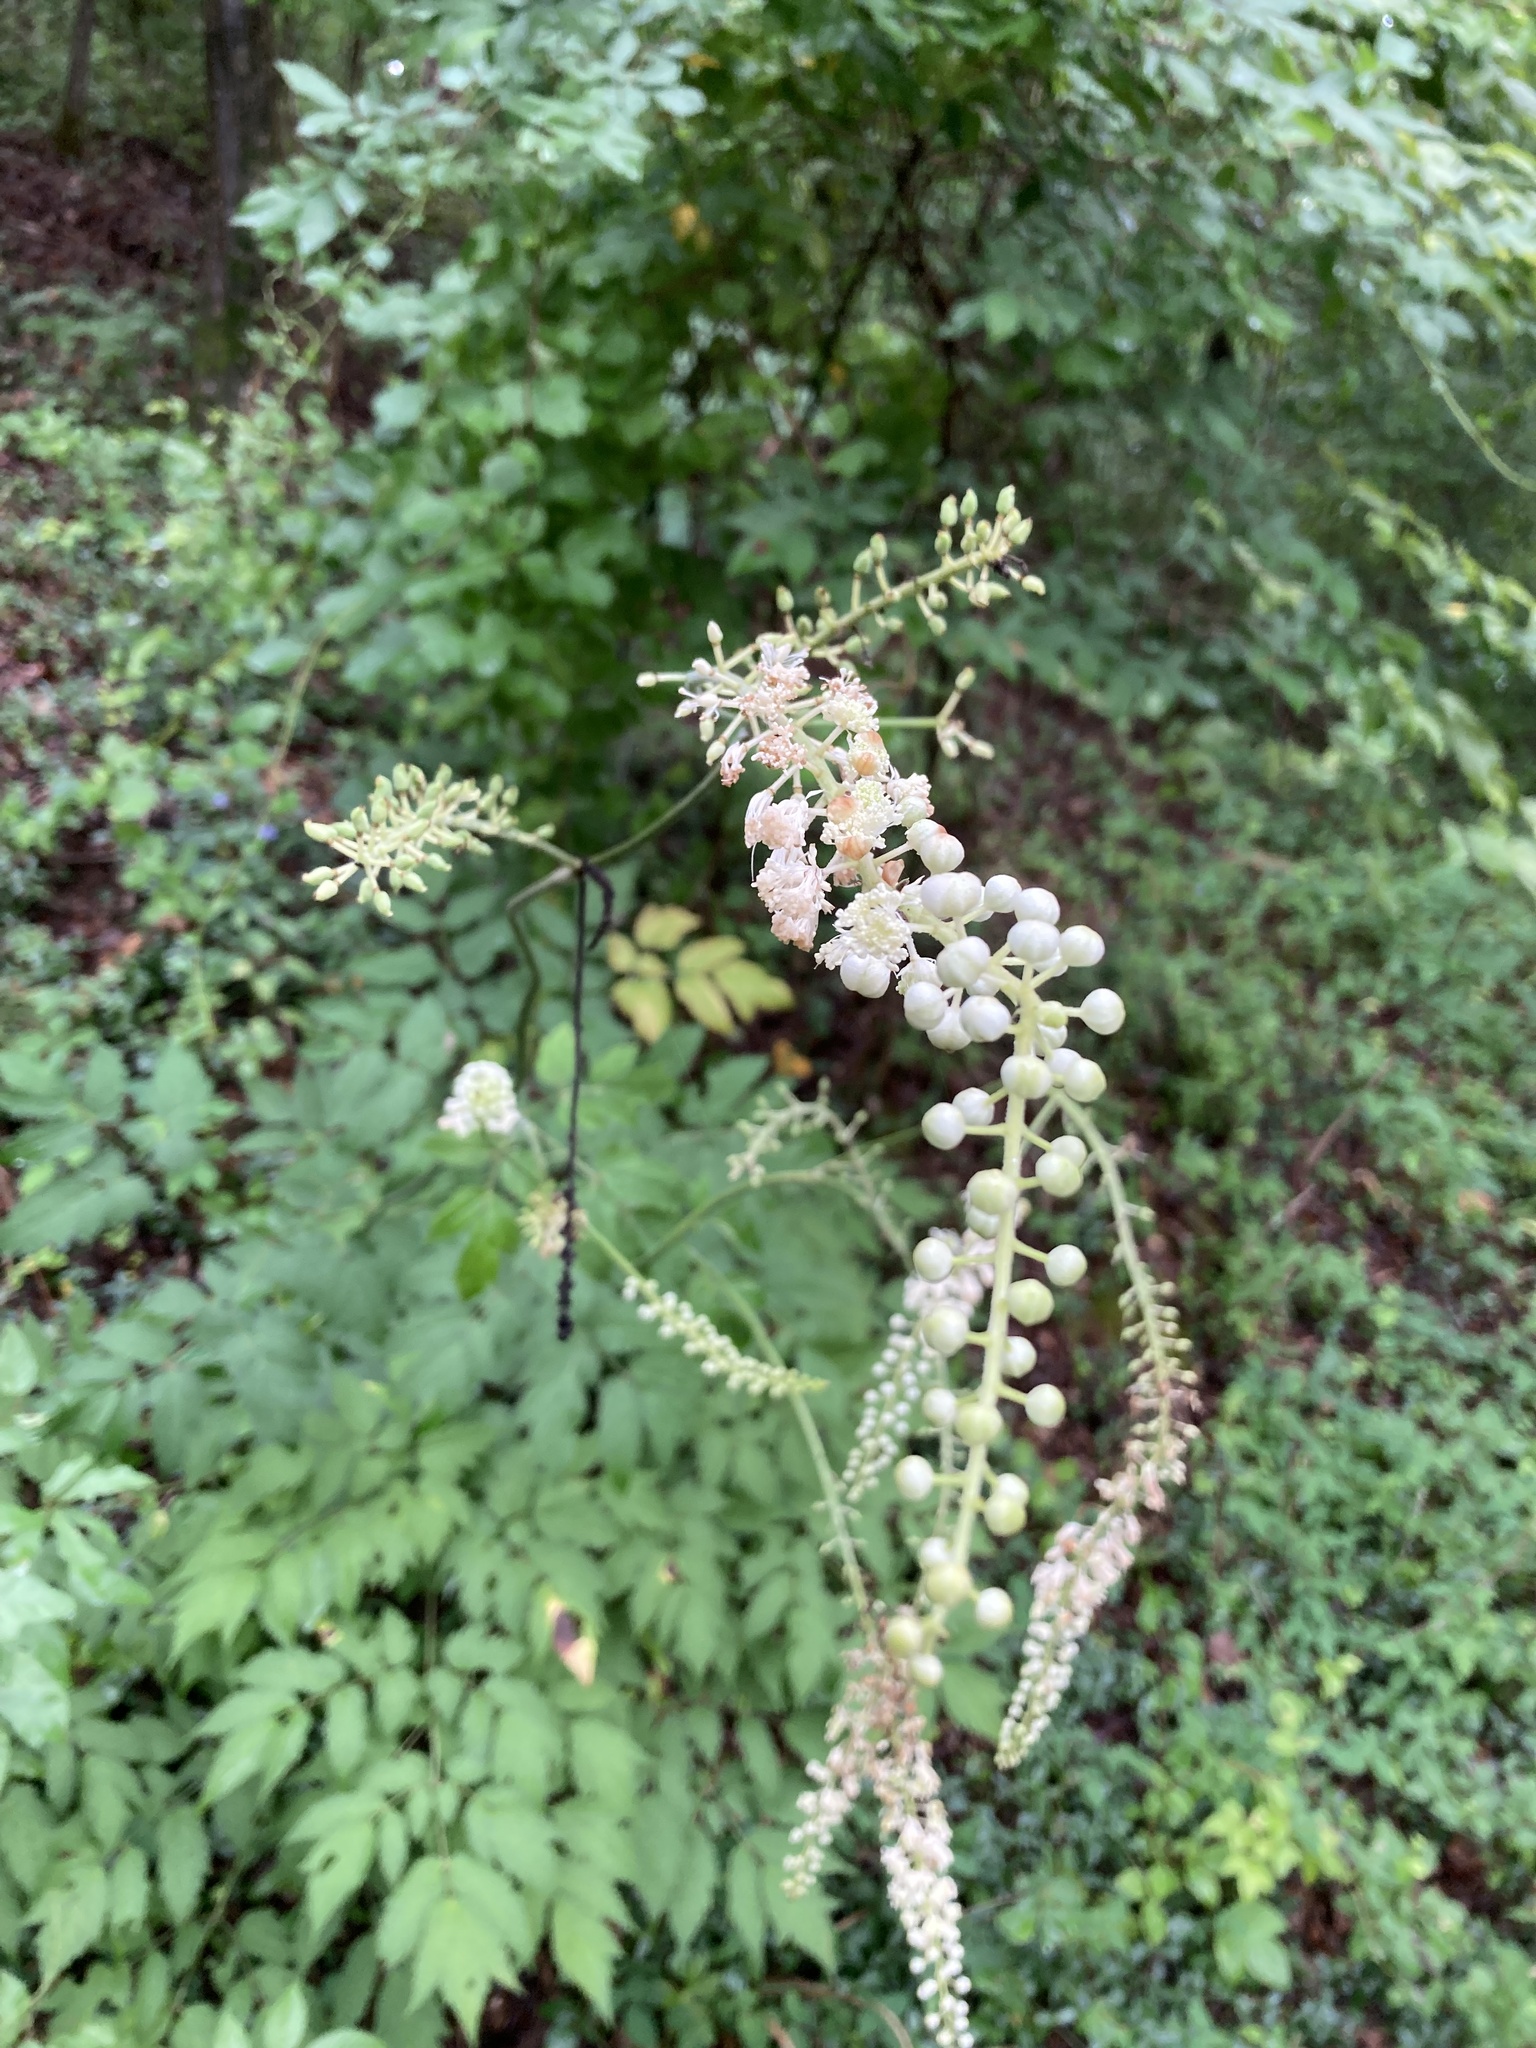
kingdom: Plantae
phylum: Tracheophyta
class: Magnoliopsida
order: Ranunculales
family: Ranunculaceae
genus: Actaea
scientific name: Actaea racemosa
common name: Black cohosh
